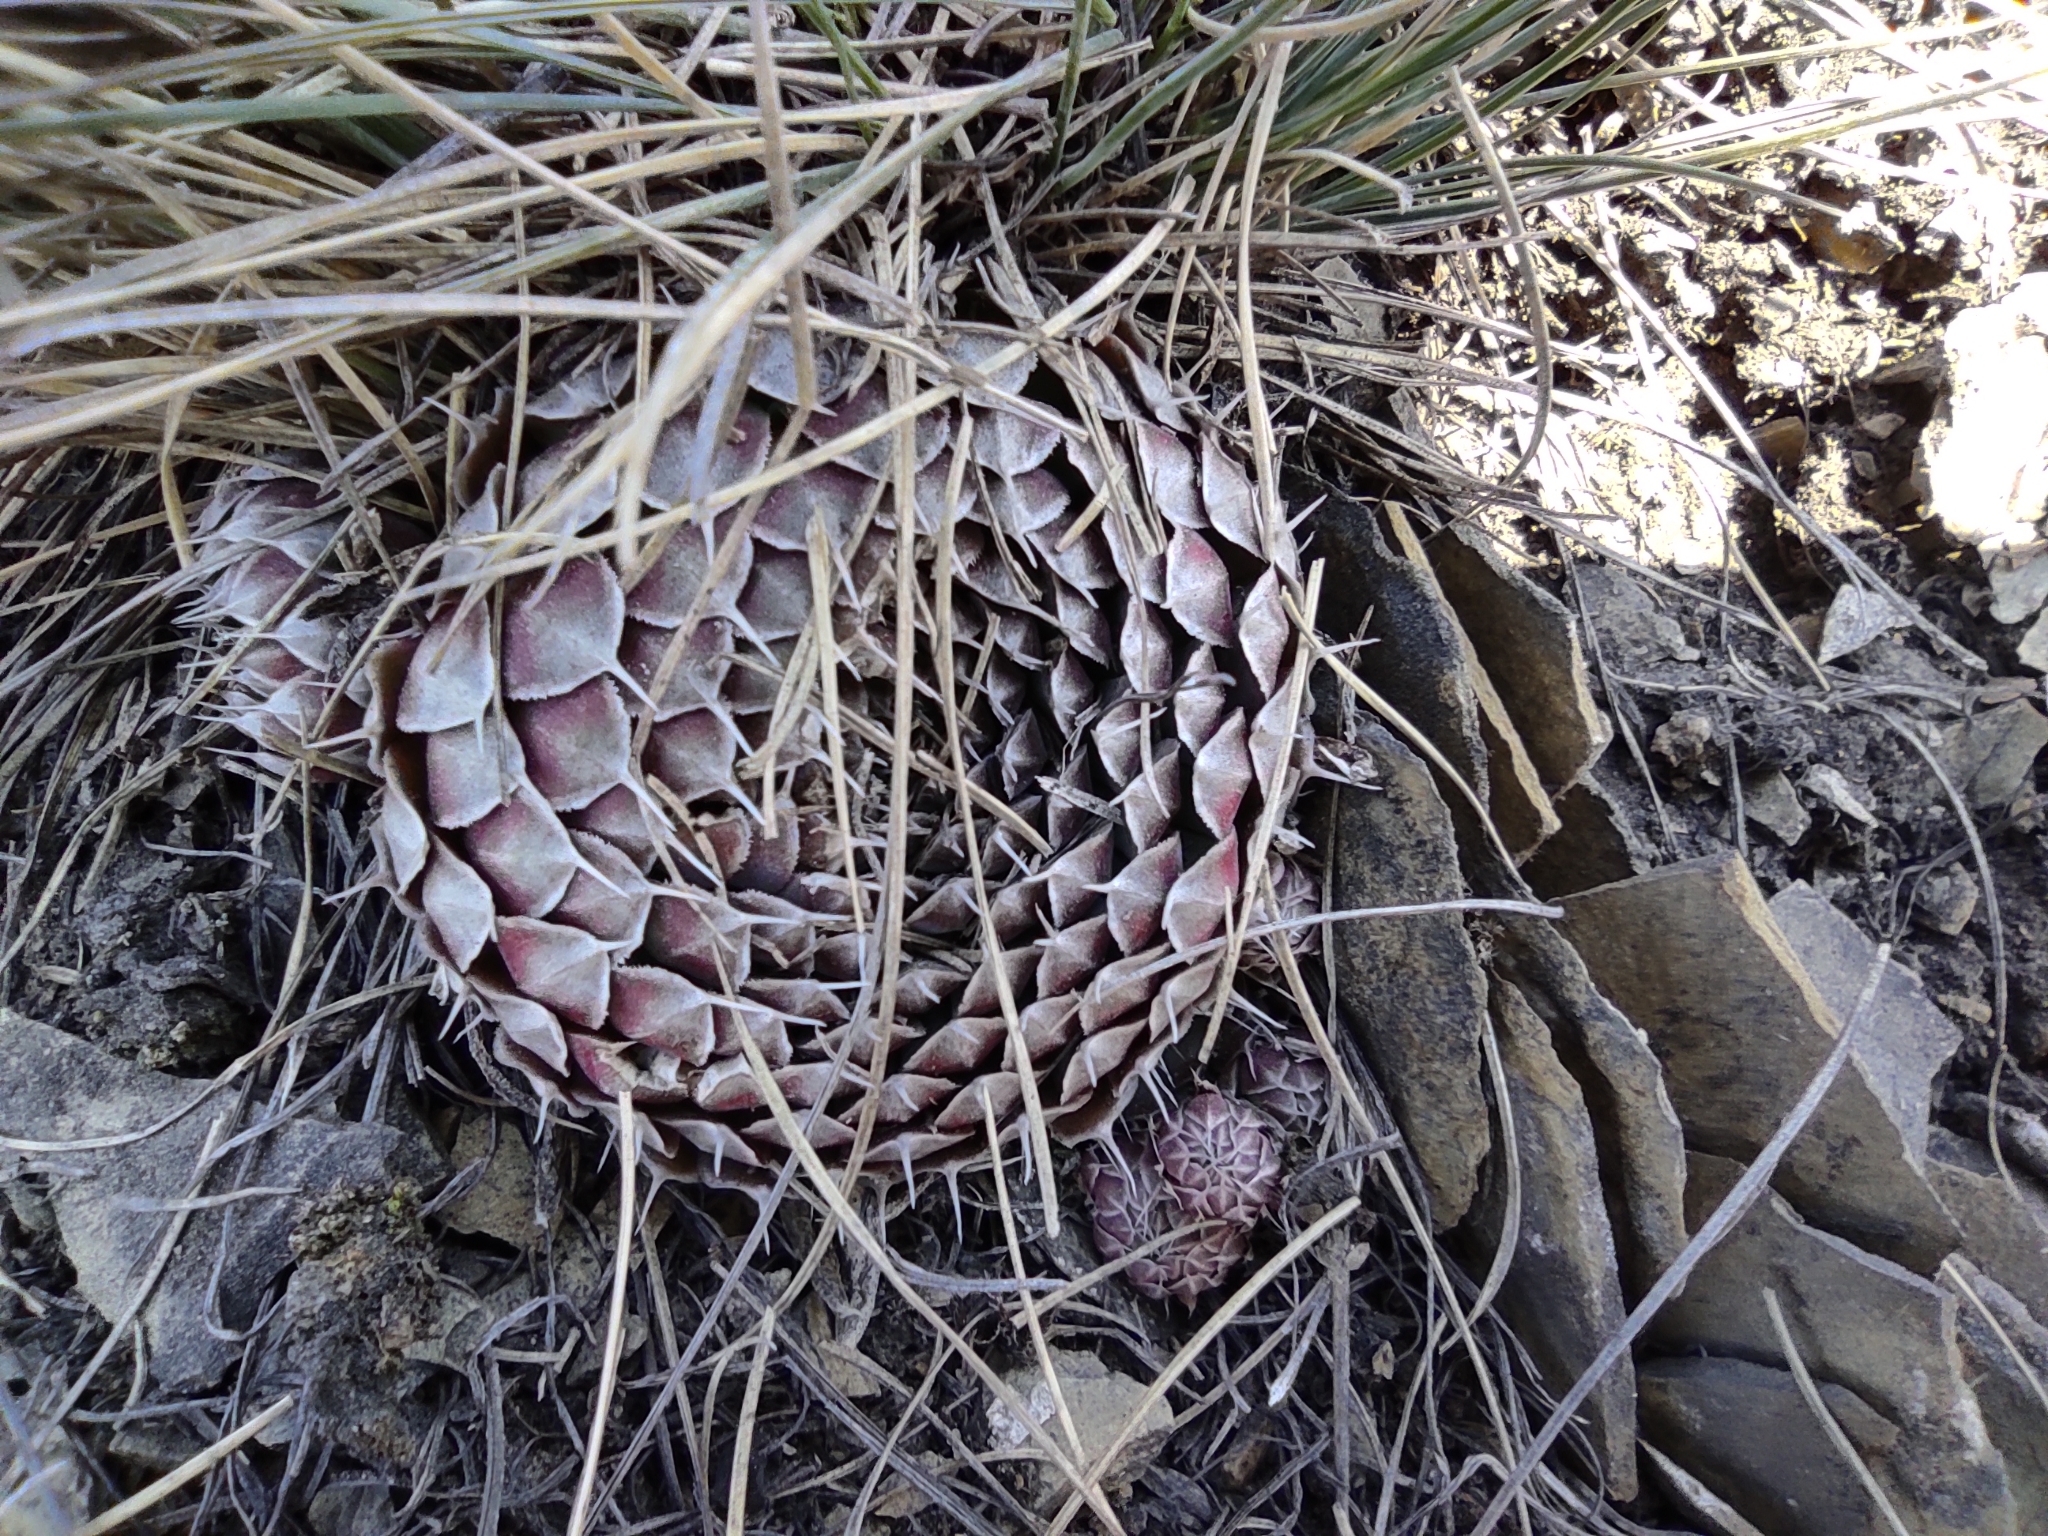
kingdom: Plantae
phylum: Tracheophyta
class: Magnoliopsida
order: Saxifragales
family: Crassulaceae
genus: Orostachys
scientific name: Orostachys spinosa
